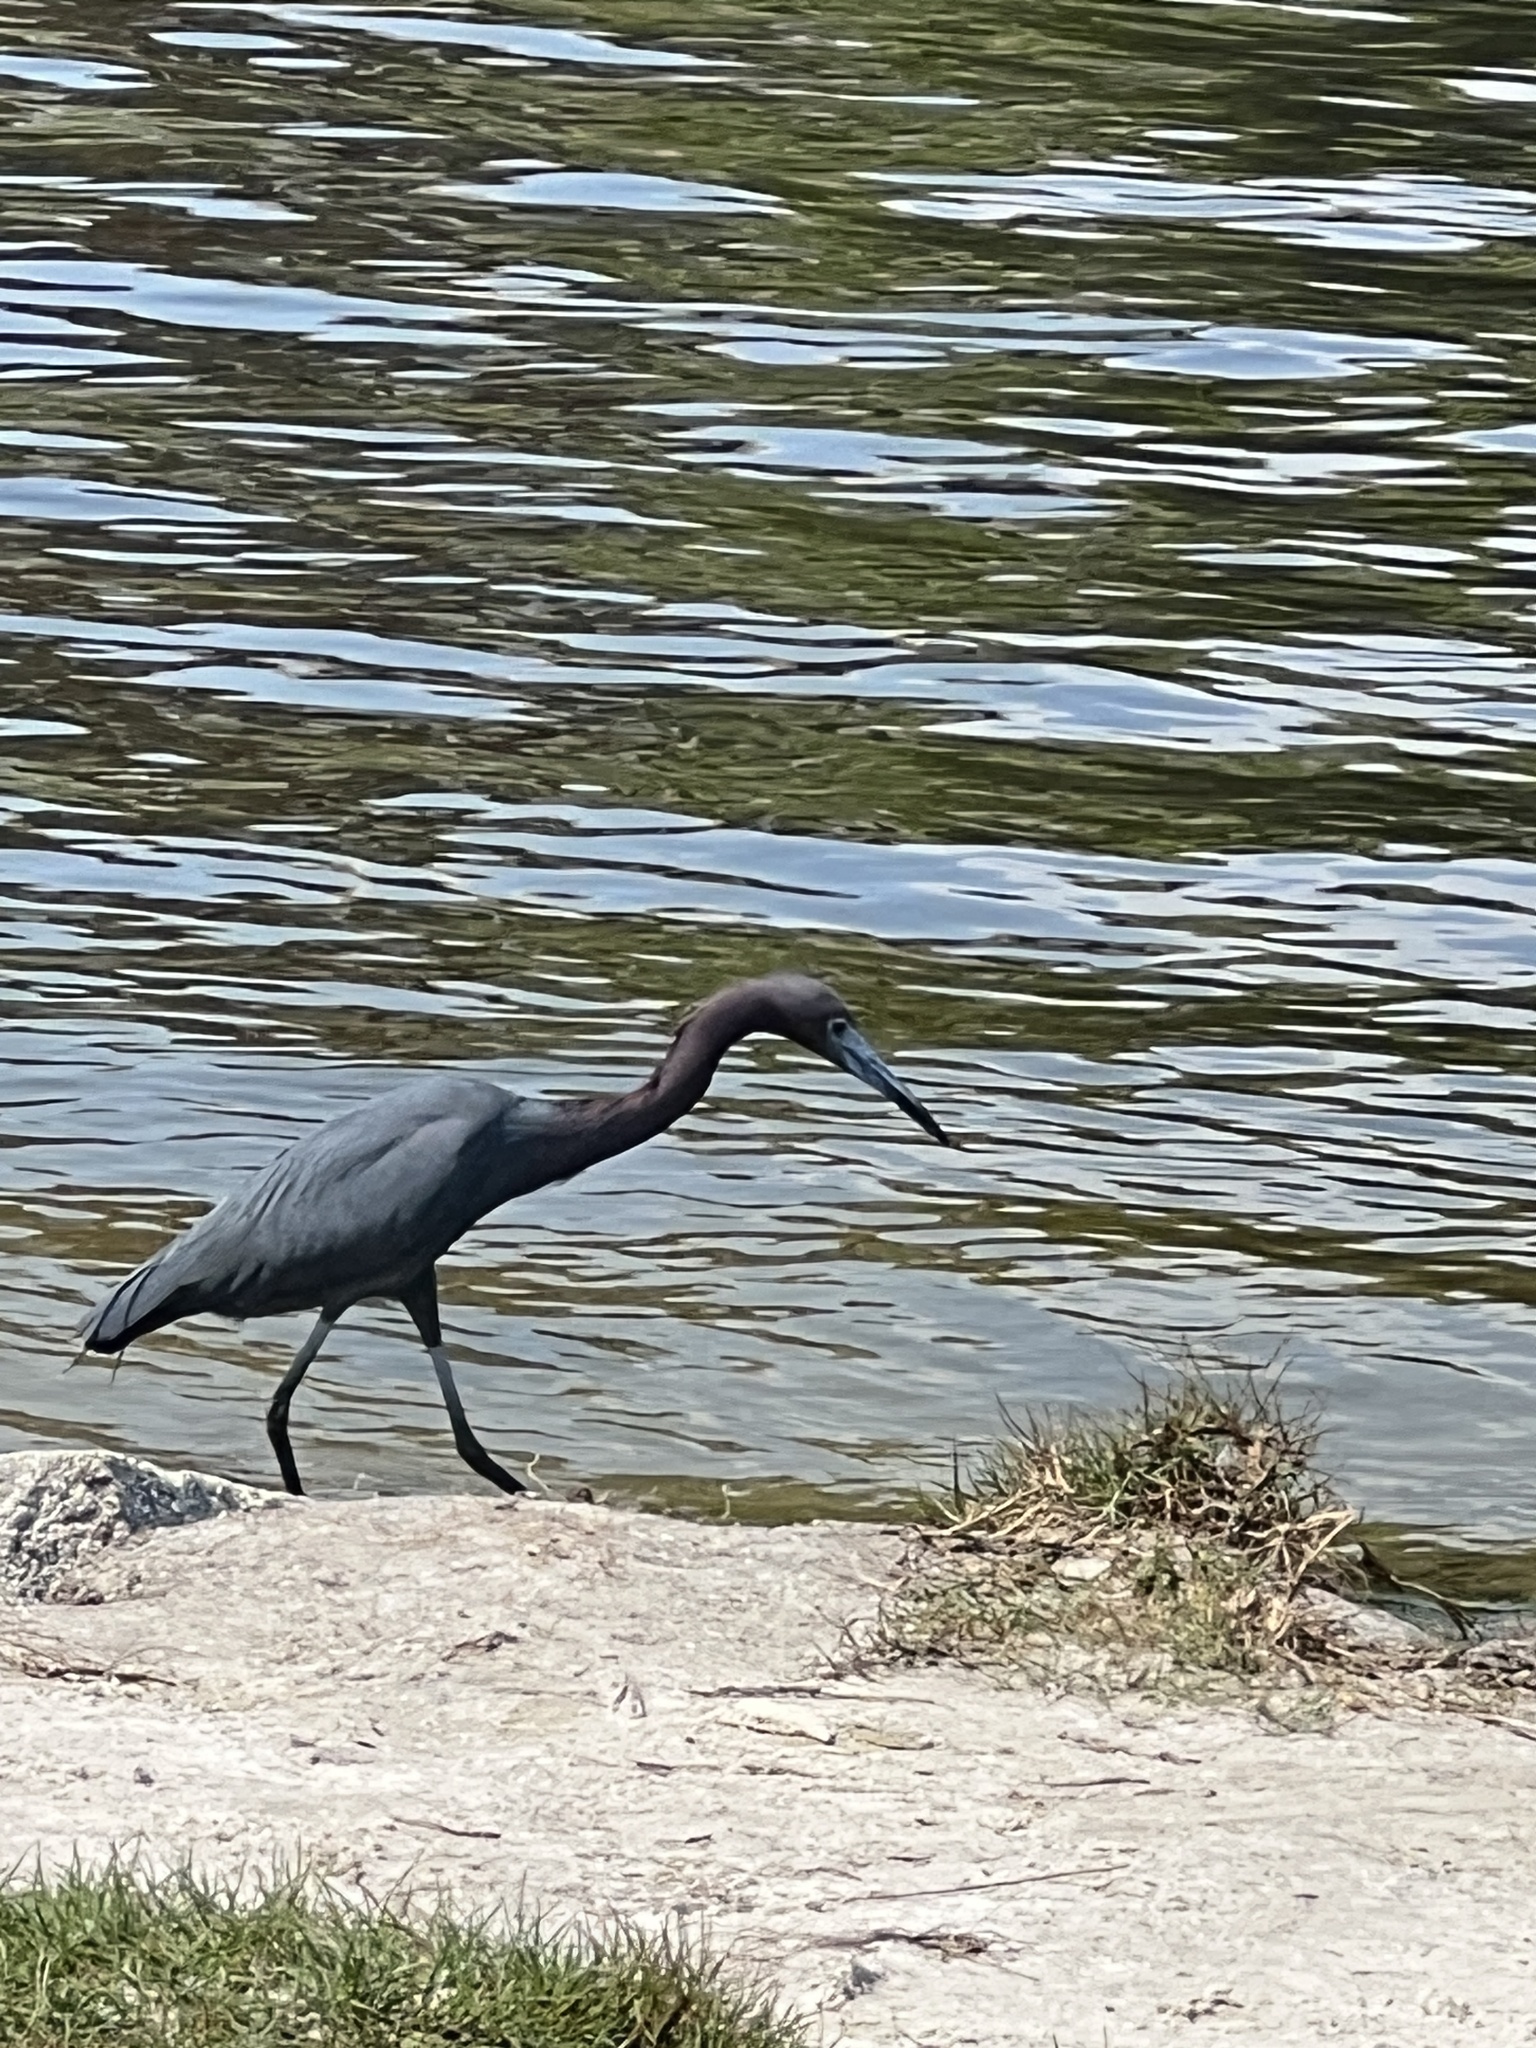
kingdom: Animalia
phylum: Chordata
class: Aves
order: Pelecaniformes
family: Ardeidae
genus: Egretta
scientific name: Egretta caerulea
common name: Little blue heron
